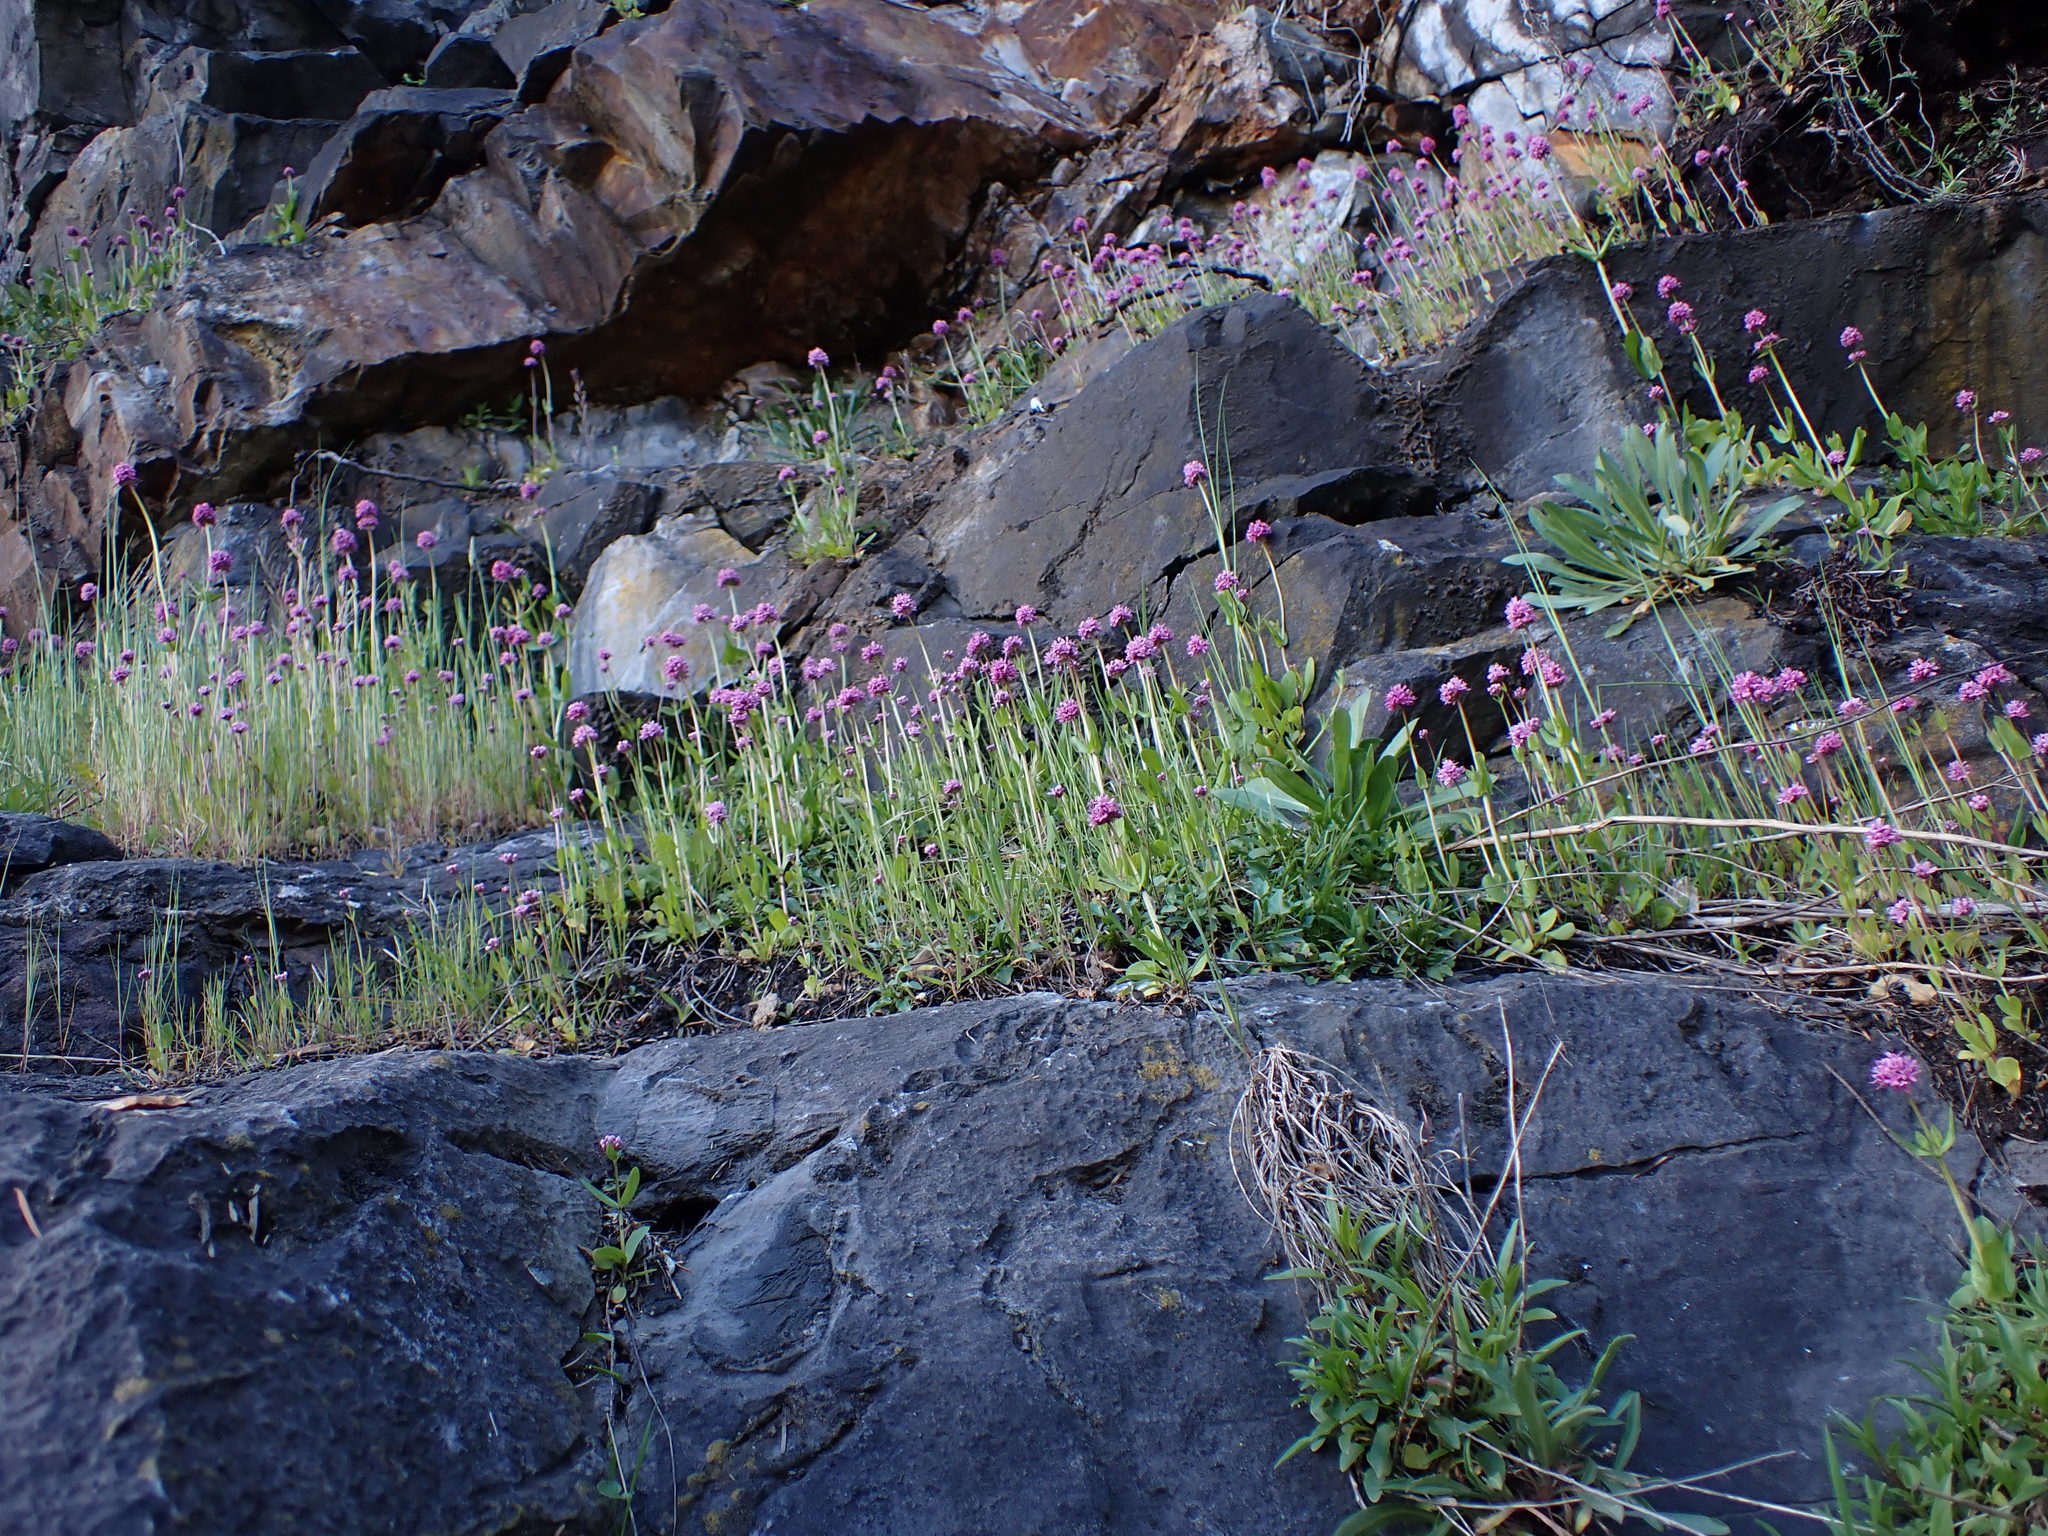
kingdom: Plantae
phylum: Tracheophyta
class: Magnoliopsida
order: Dipsacales
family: Caprifoliaceae
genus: Plectritis
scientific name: Plectritis congesta
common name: Pink plectritis
